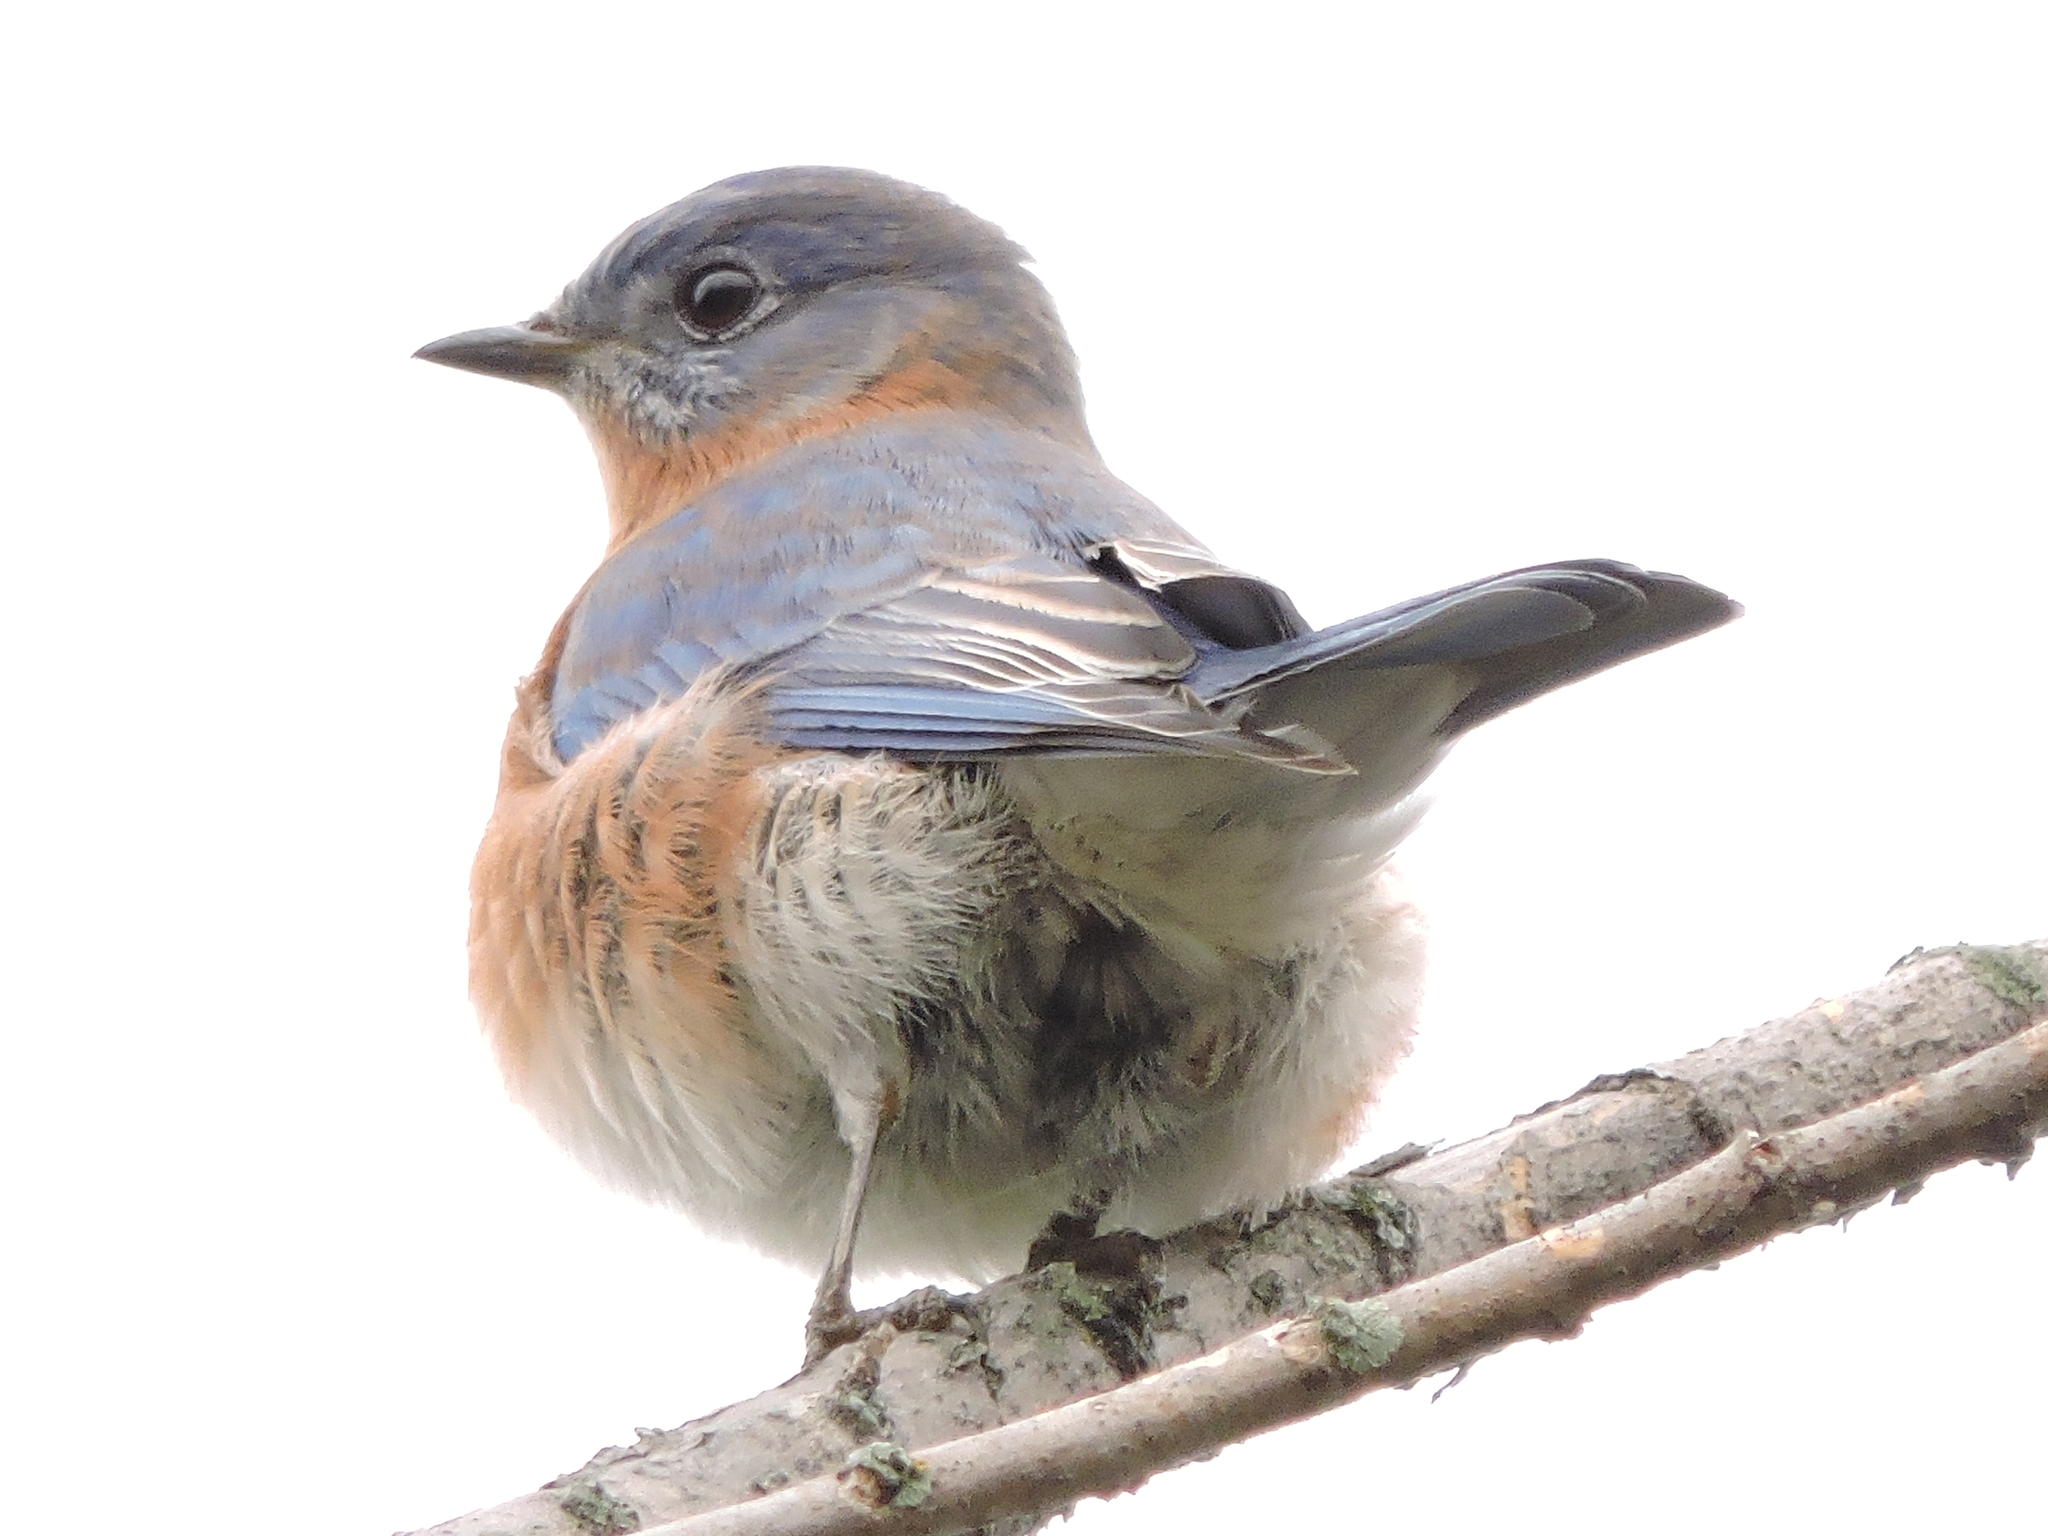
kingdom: Animalia
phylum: Chordata
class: Aves
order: Passeriformes
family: Turdidae
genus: Sialia
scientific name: Sialia sialis
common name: Eastern bluebird
